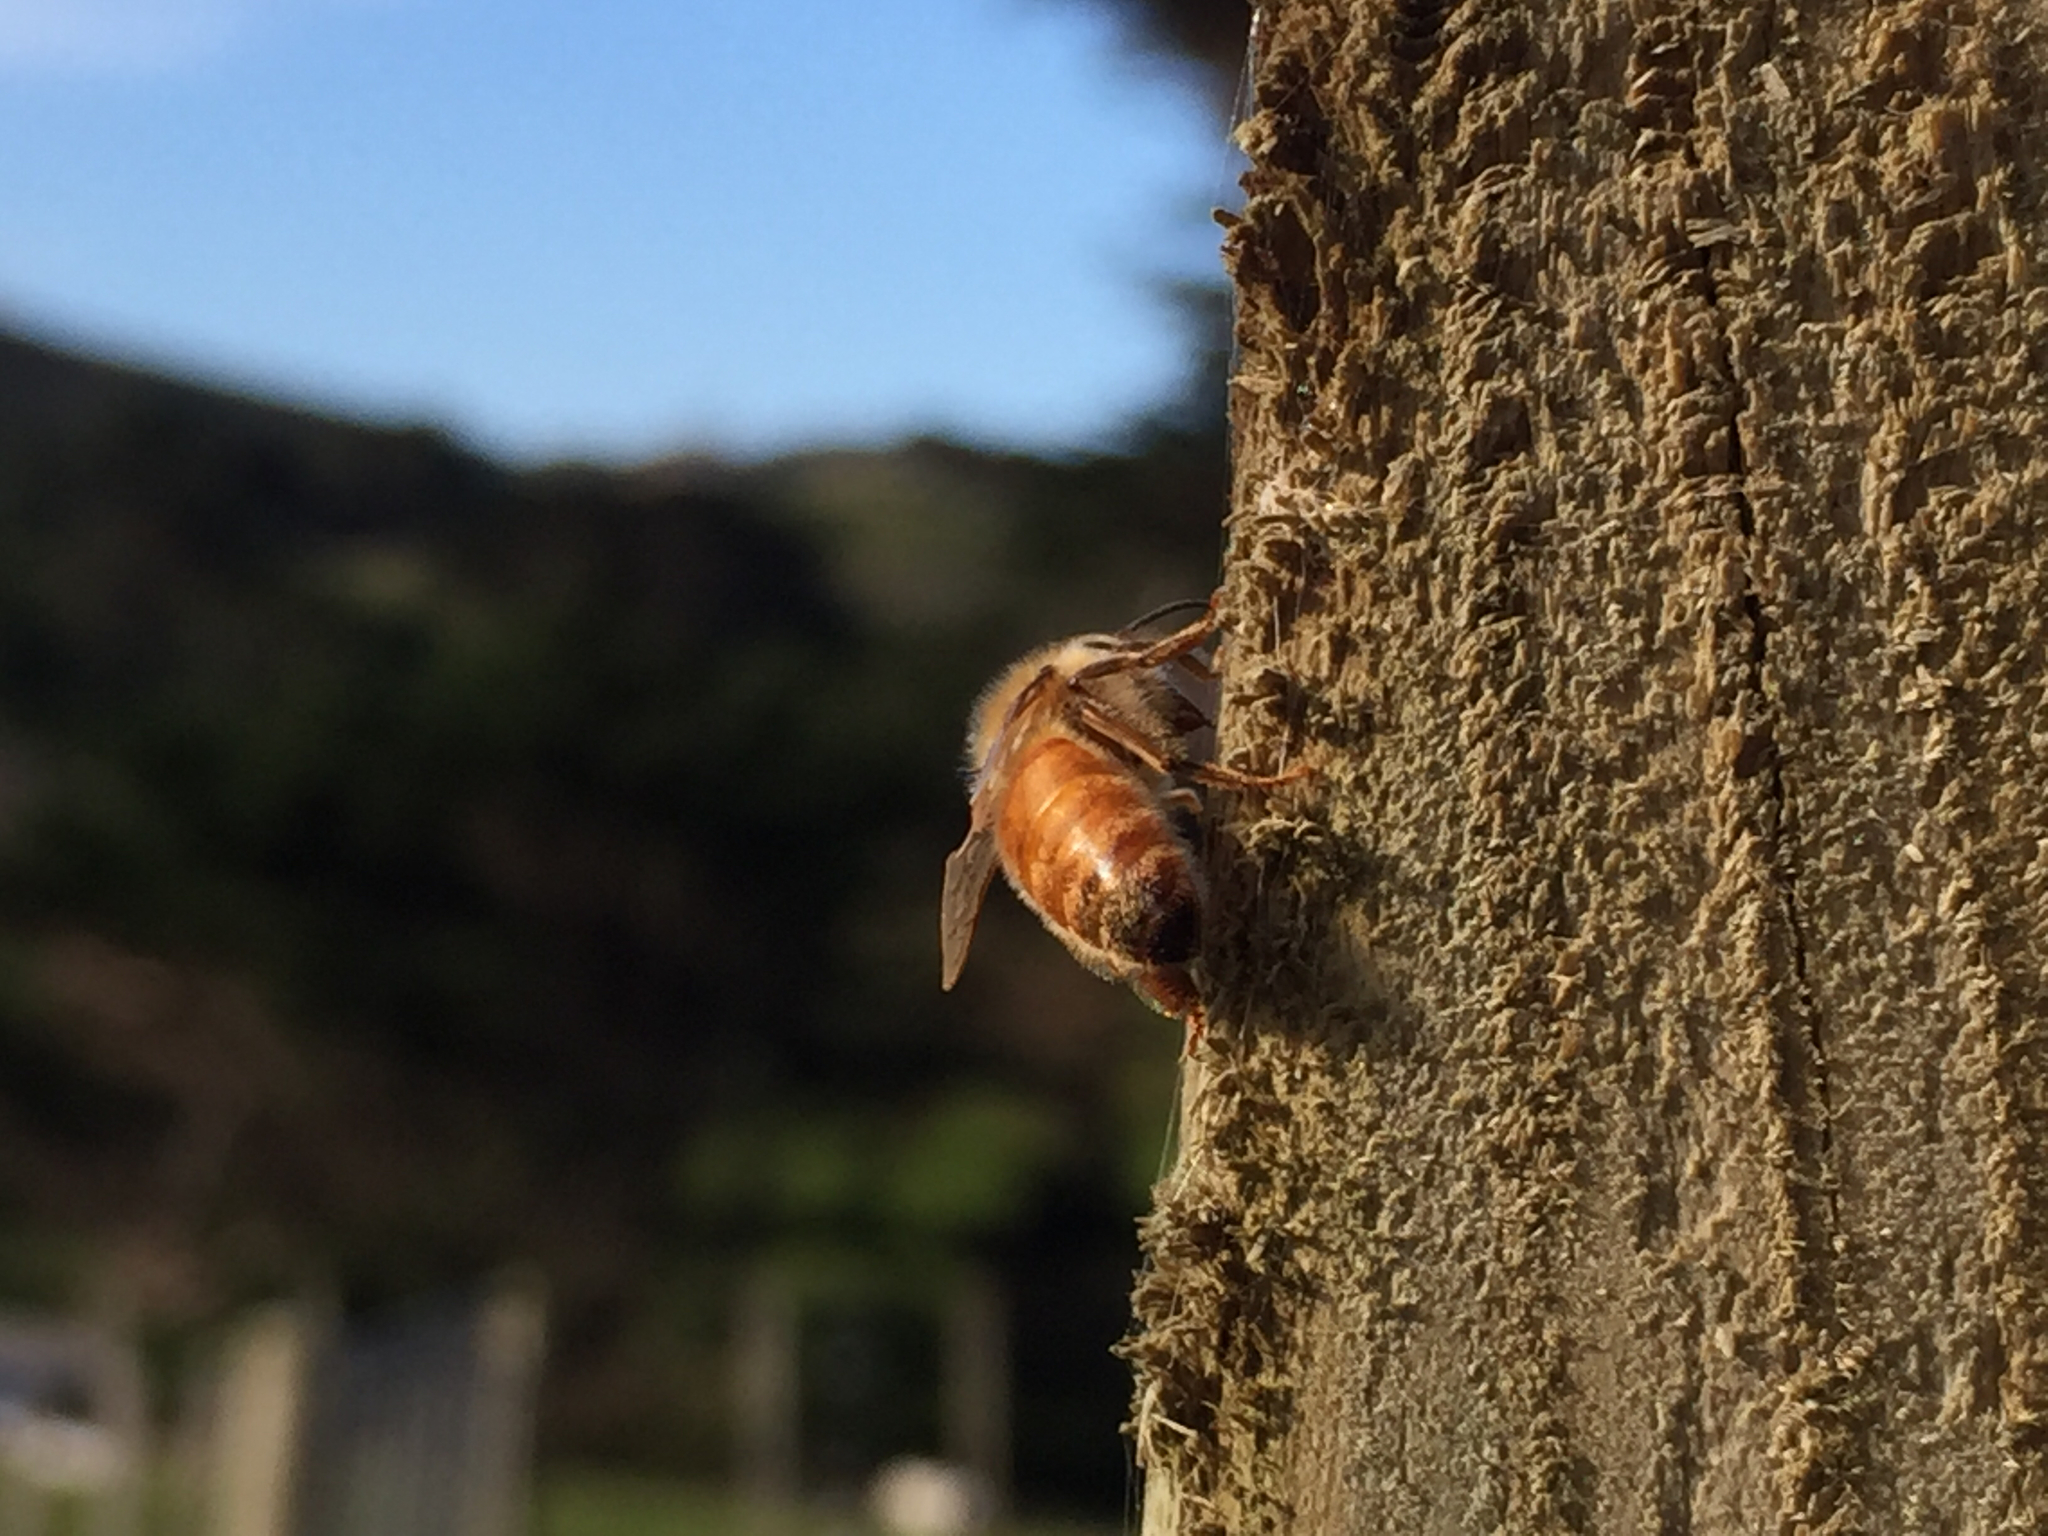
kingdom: Animalia
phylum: Arthropoda
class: Insecta
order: Hymenoptera
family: Apidae
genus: Apis
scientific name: Apis mellifera
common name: Honey bee
